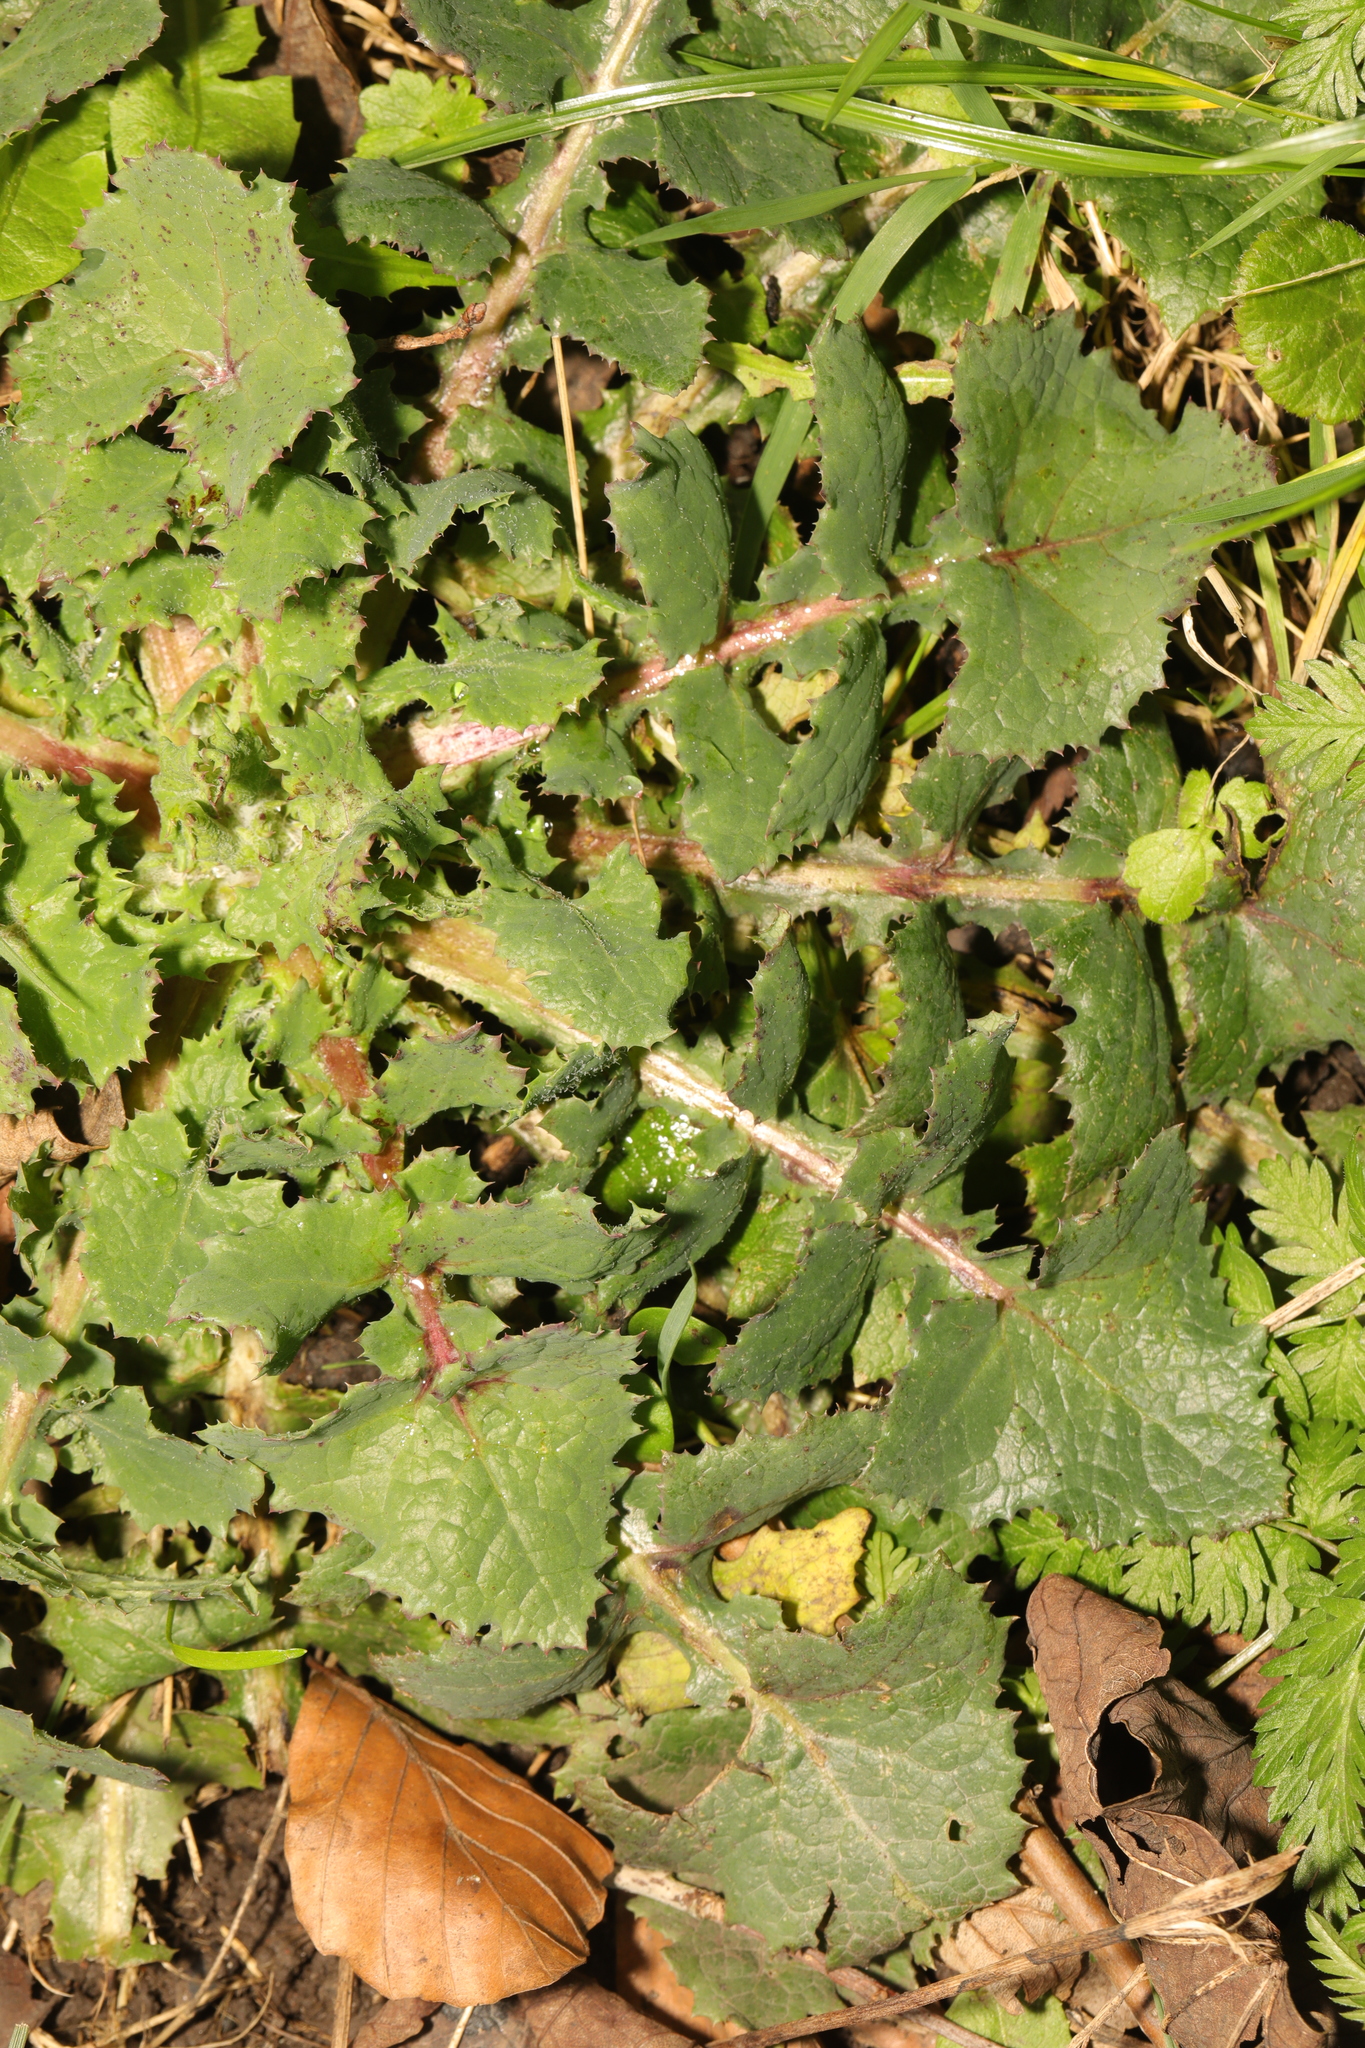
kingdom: Plantae
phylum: Tracheophyta
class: Magnoliopsida
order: Asterales
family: Asteraceae
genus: Sonchus
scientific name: Sonchus oleraceus
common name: Common sowthistle
